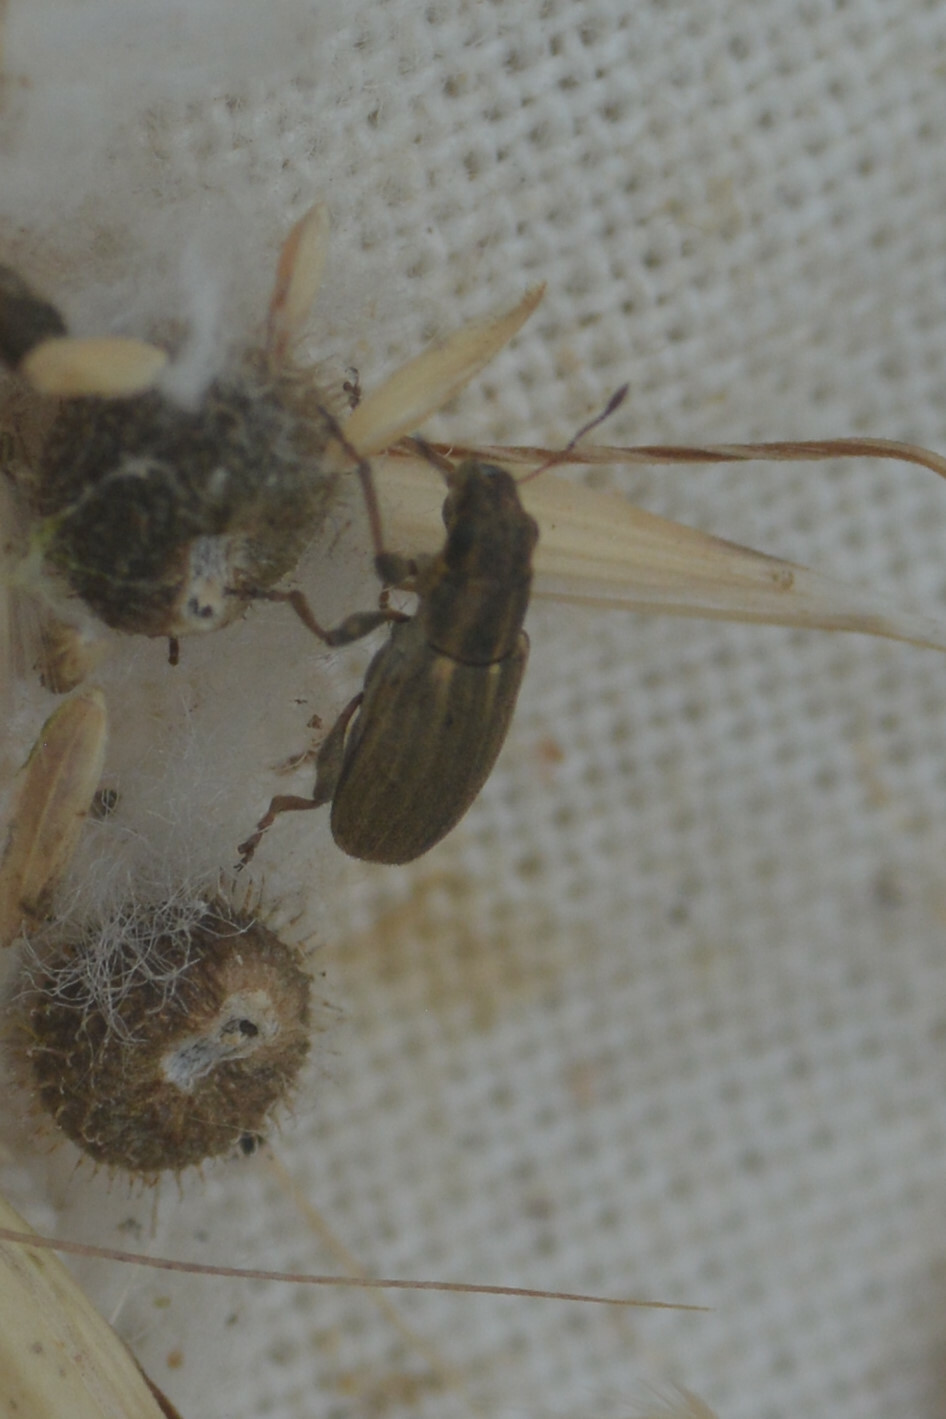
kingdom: Animalia
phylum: Arthropoda
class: Insecta
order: Coleoptera
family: Curculionidae
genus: Sitona
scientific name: Sitona lineatus
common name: Weevil
